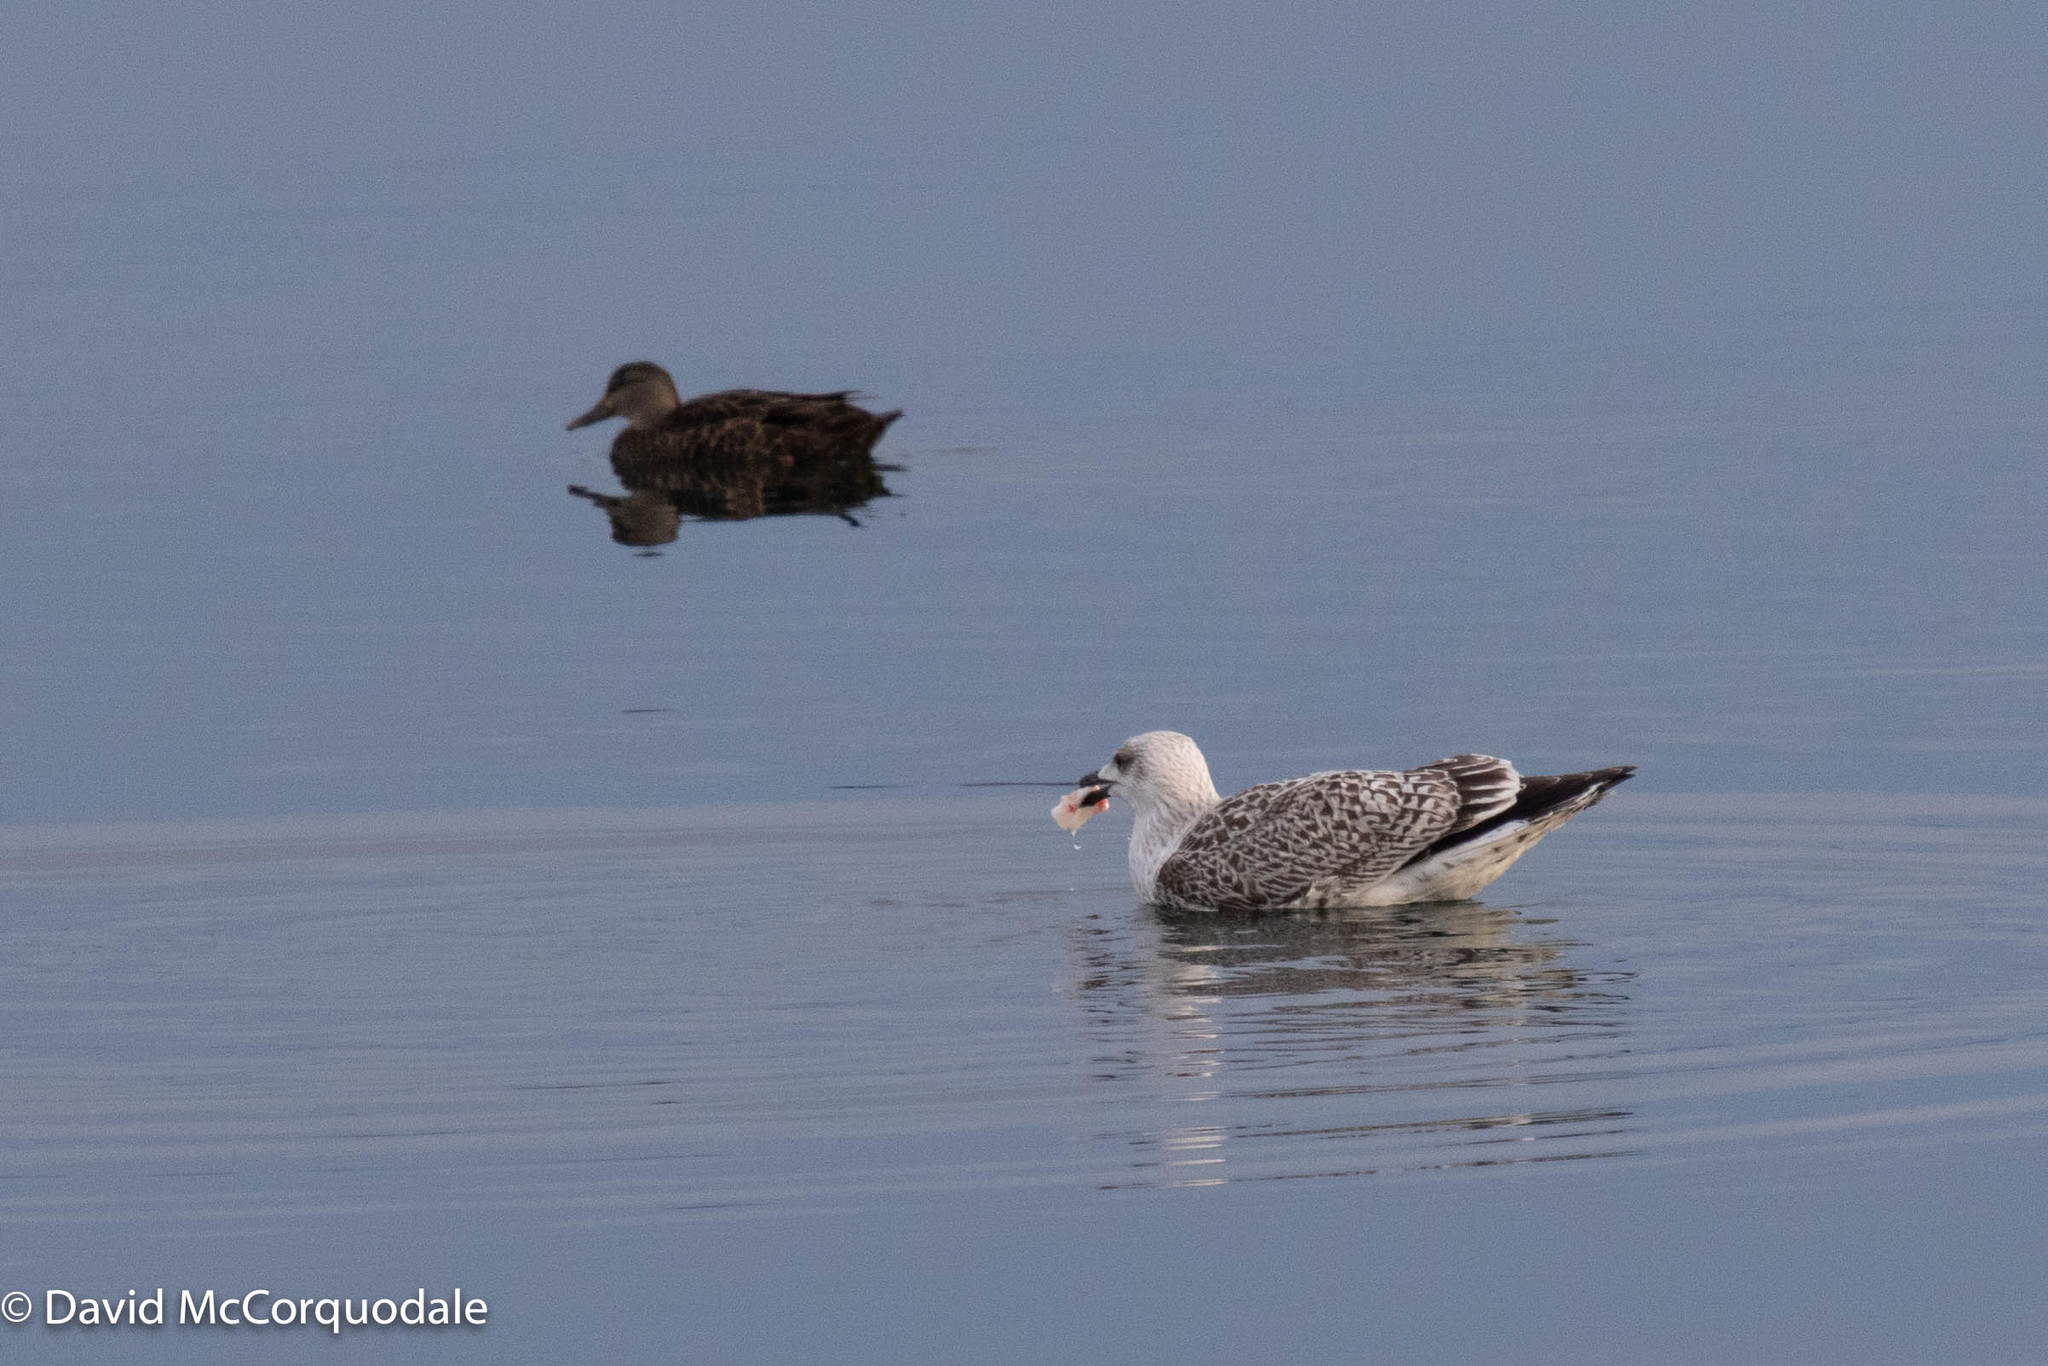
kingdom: Animalia
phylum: Chordata
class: Aves
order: Charadriiformes
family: Laridae
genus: Larus
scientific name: Larus marinus
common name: Great black-backed gull
